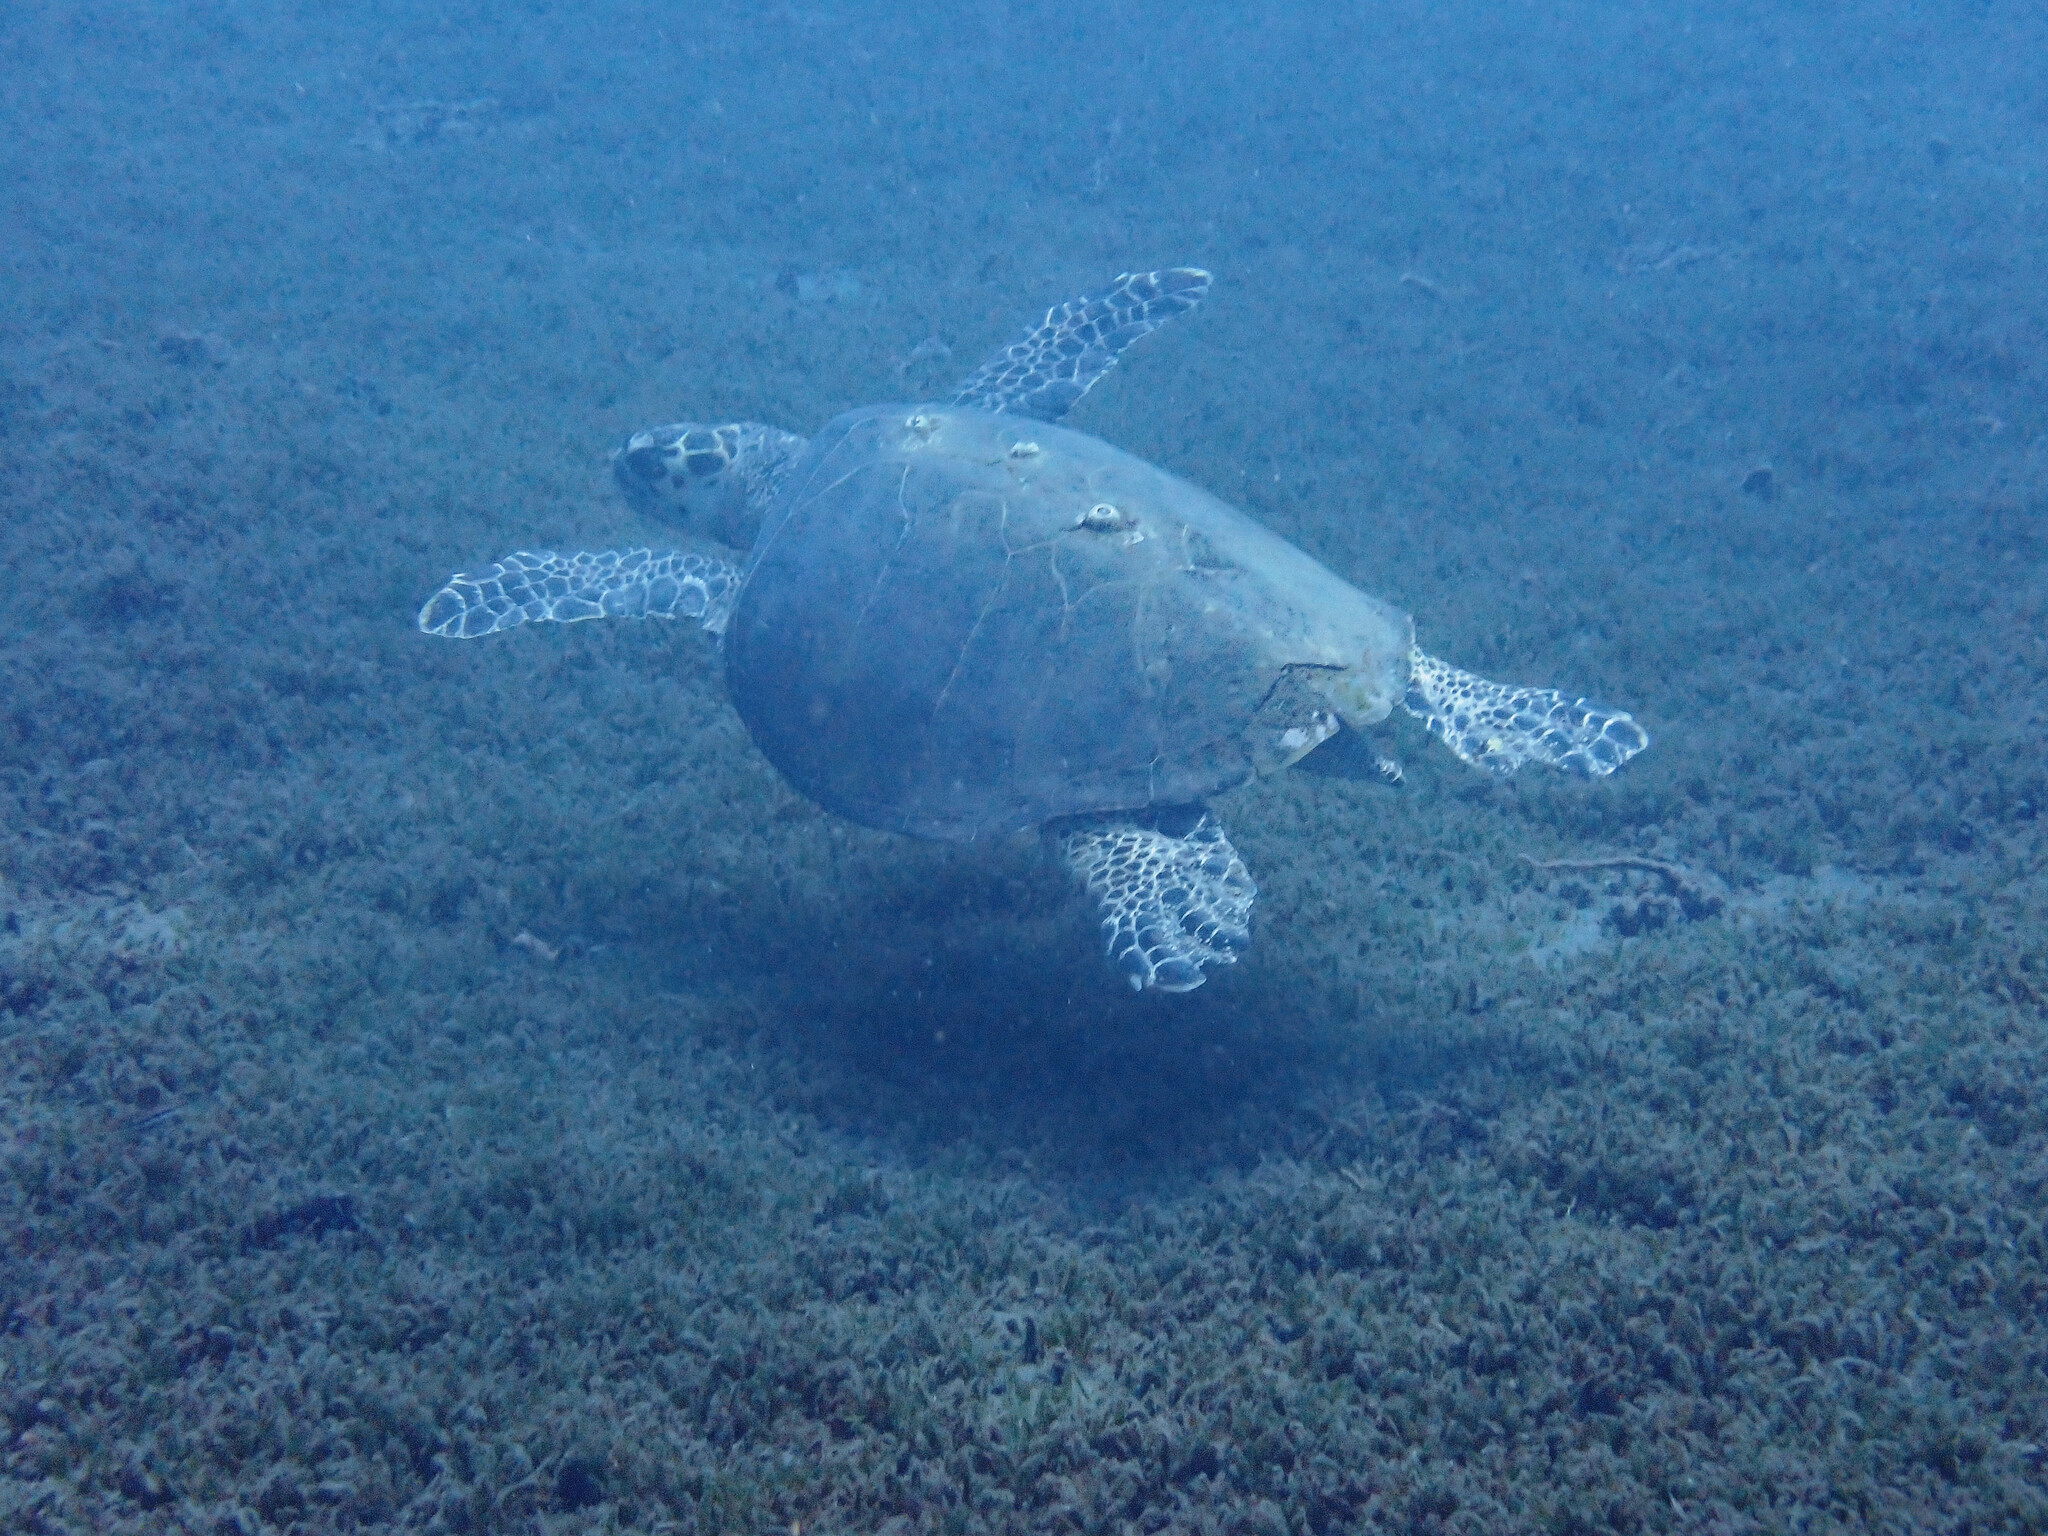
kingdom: Animalia
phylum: Chordata
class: Testudines
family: Cheloniidae
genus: Eretmochelys
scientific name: Eretmochelys imbricata
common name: Hawksbill turtle
